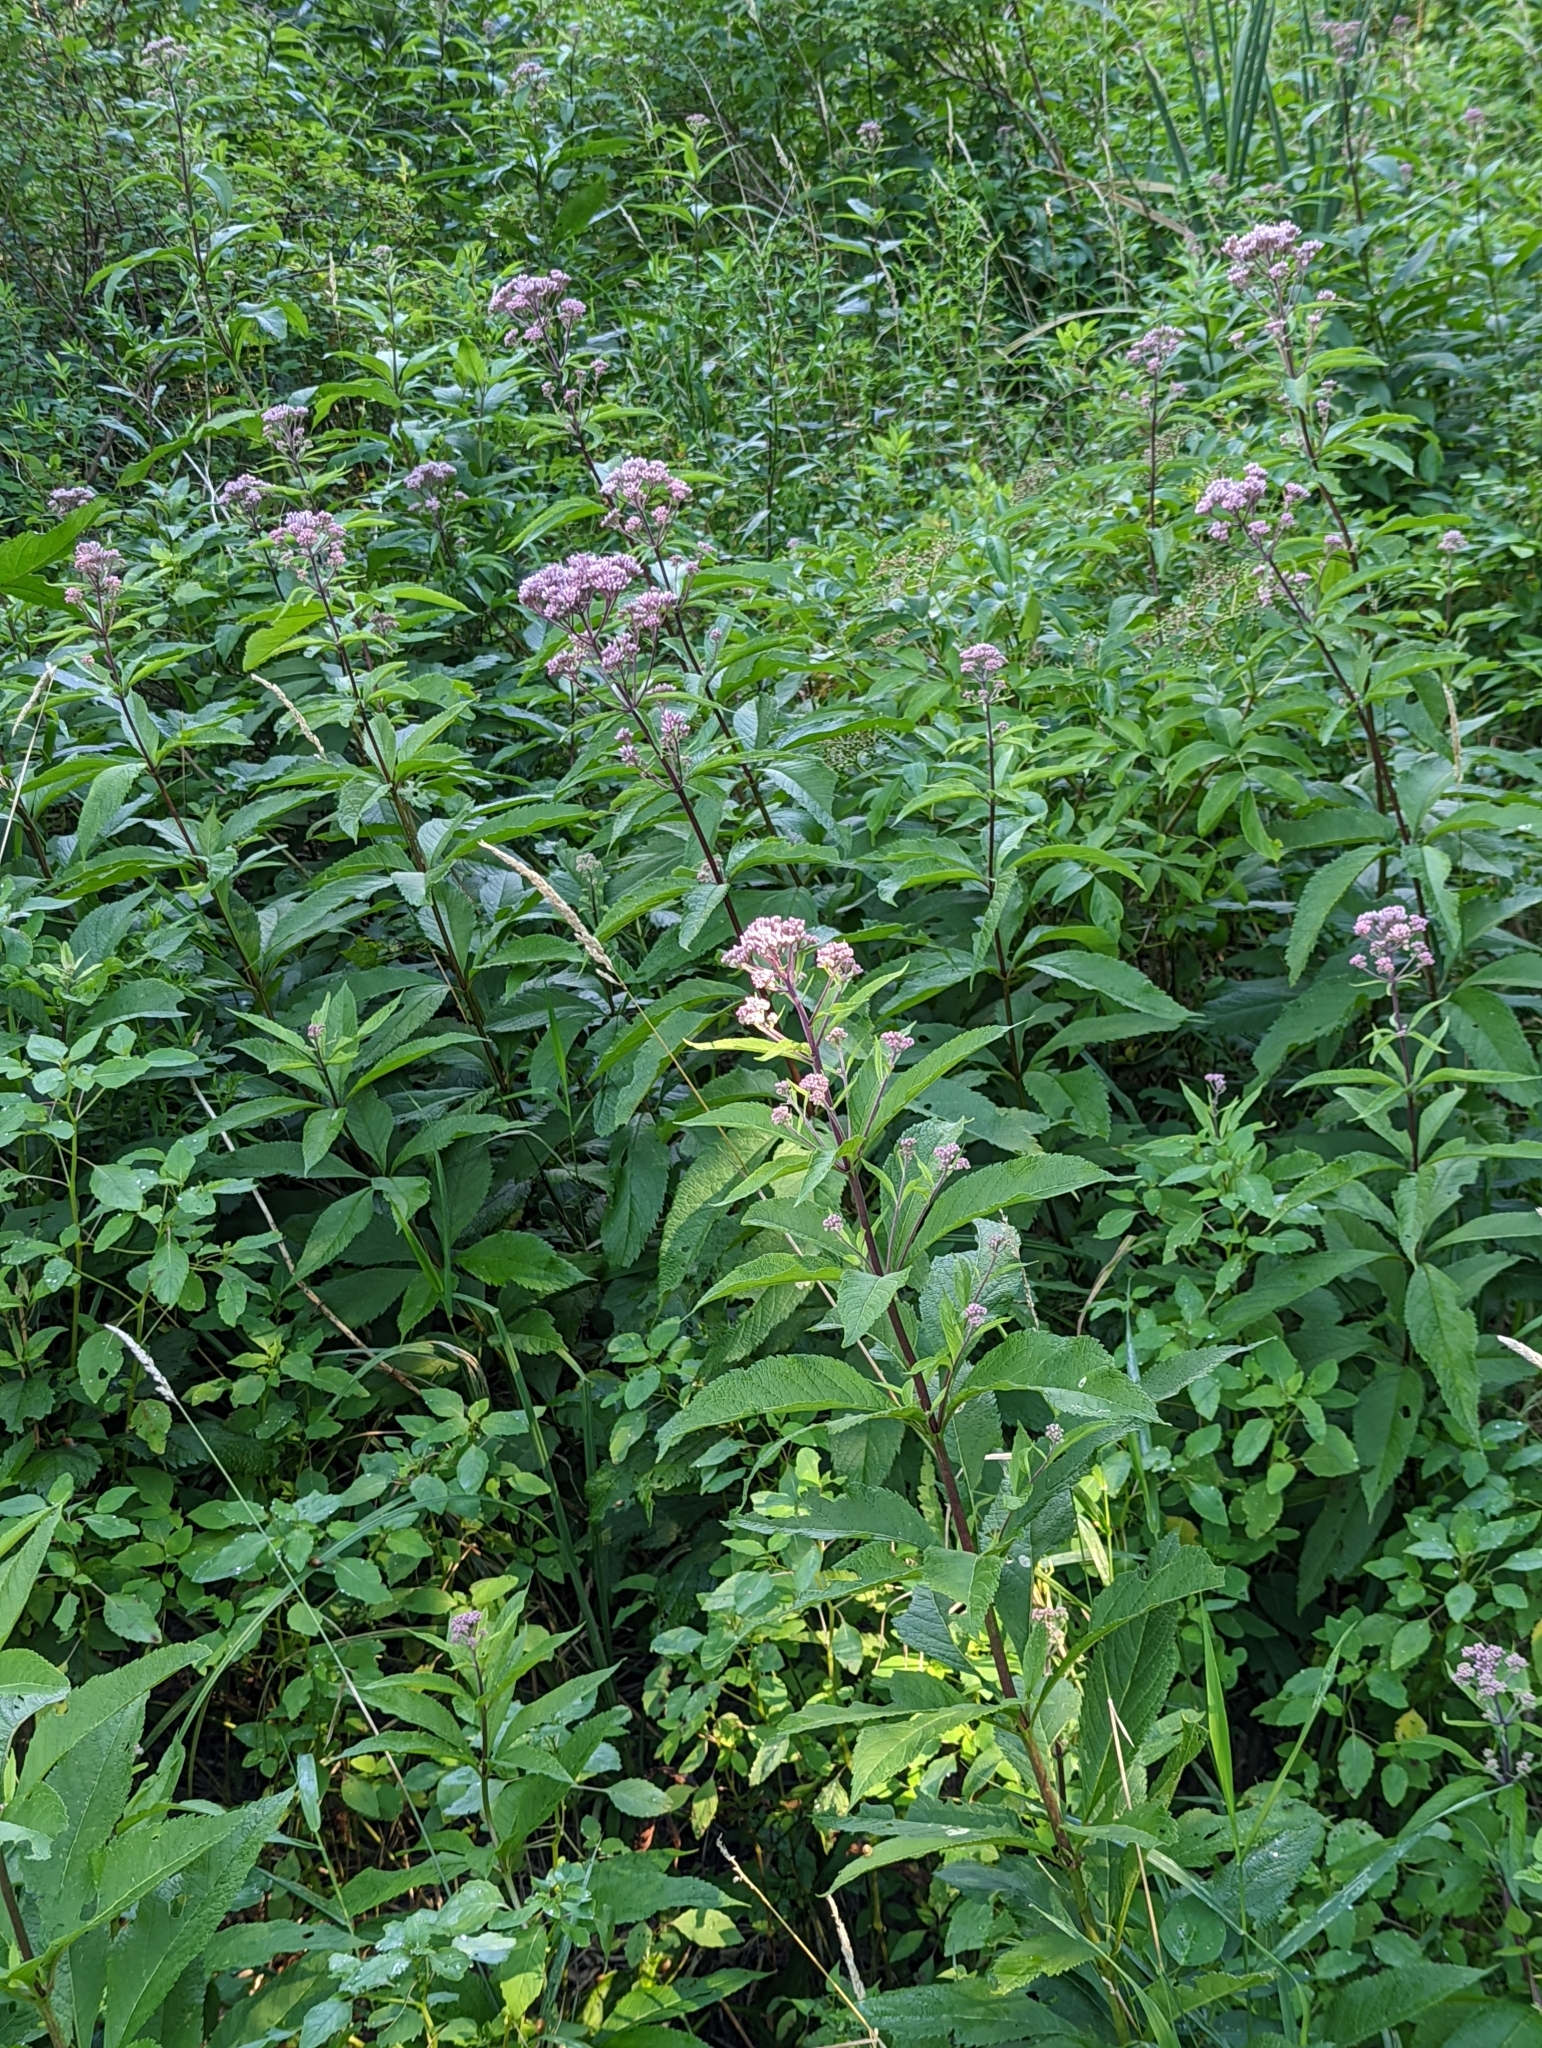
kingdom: Plantae
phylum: Tracheophyta
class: Magnoliopsida
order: Asterales
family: Asteraceae
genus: Eutrochium
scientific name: Eutrochium maculatum
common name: Spotted joe pye weed
